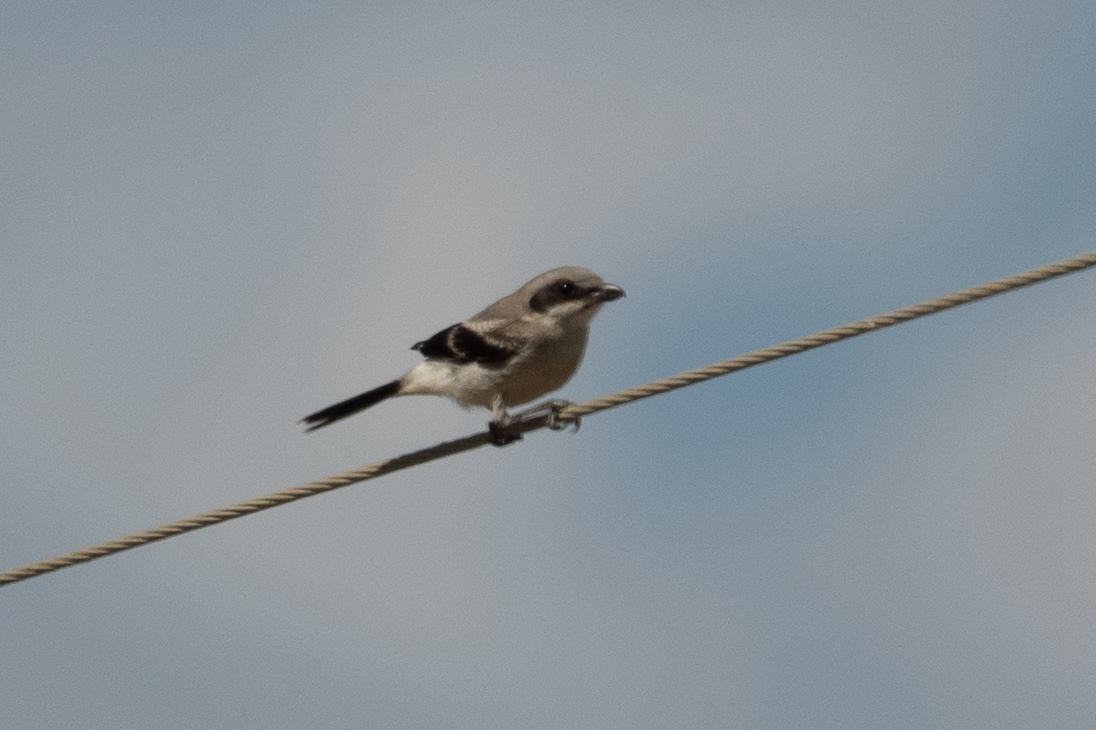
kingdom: Animalia
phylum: Chordata
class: Aves
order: Passeriformes
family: Laniidae
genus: Lanius
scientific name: Lanius ludovicianus
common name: Loggerhead shrike
